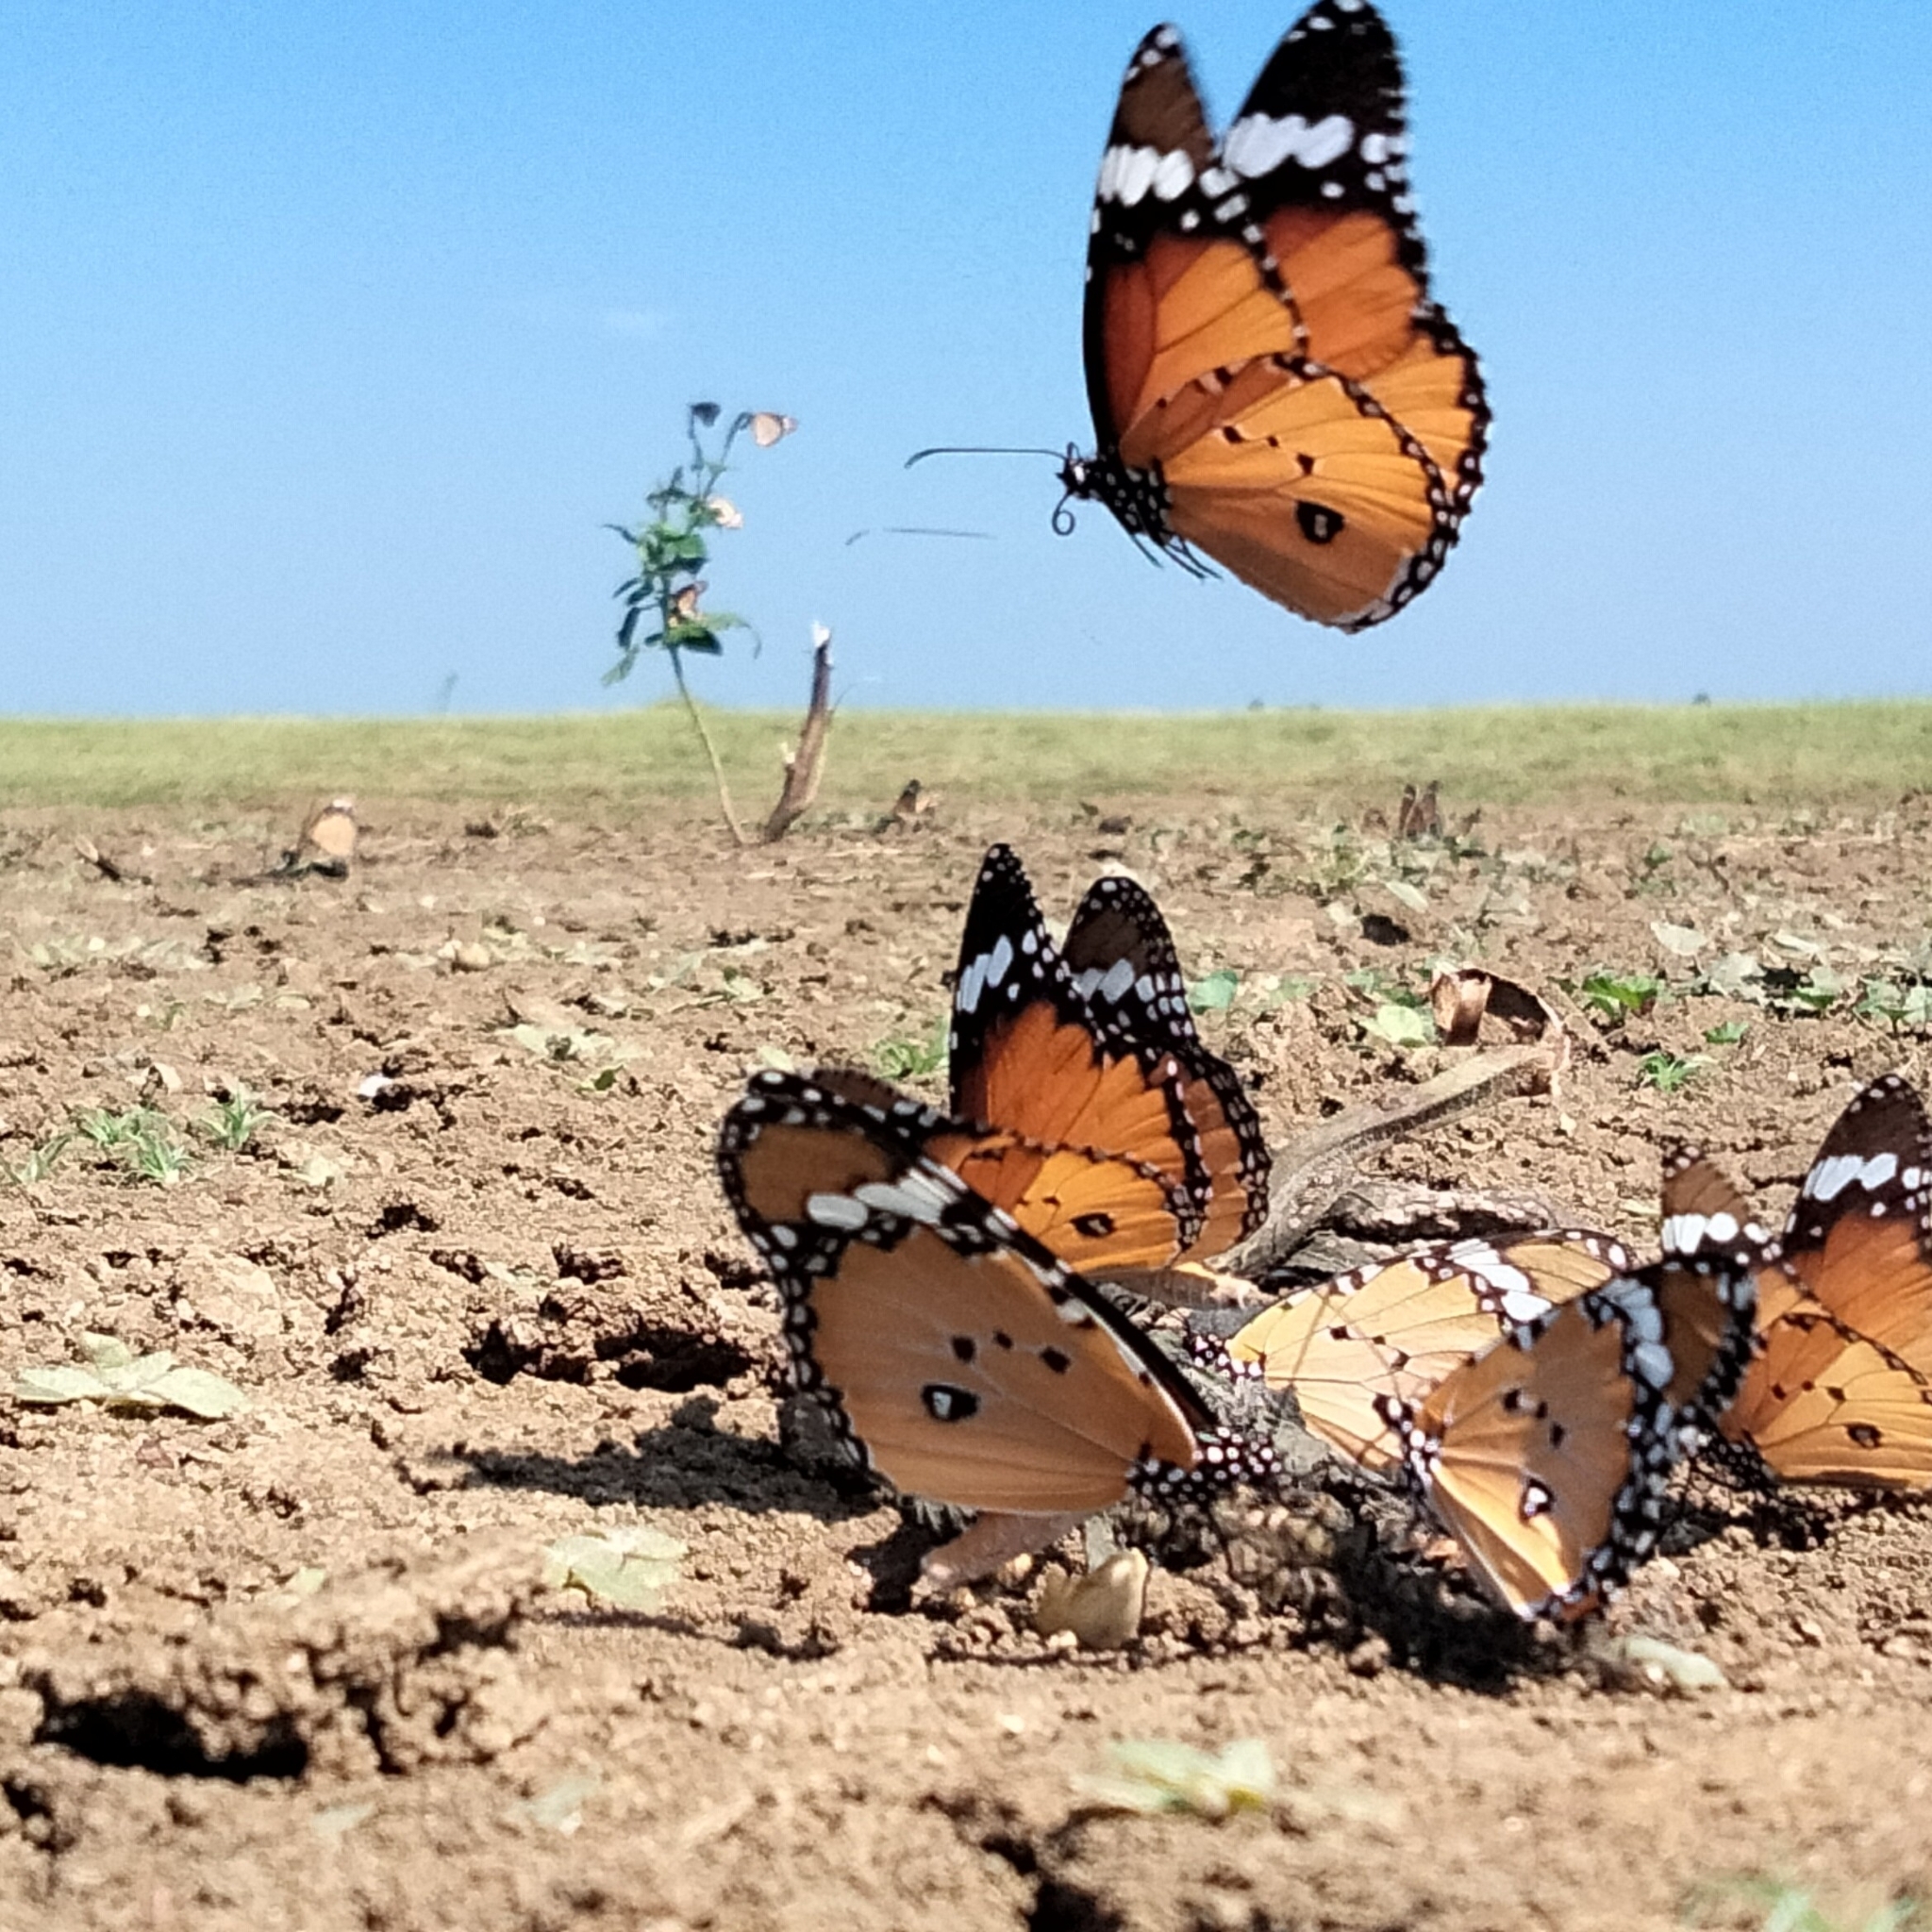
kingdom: Animalia
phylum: Arthropoda
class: Insecta
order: Lepidoptera
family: Nymphalidae
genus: Danaus
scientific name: Danaus chrysippus
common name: Plain tiger
